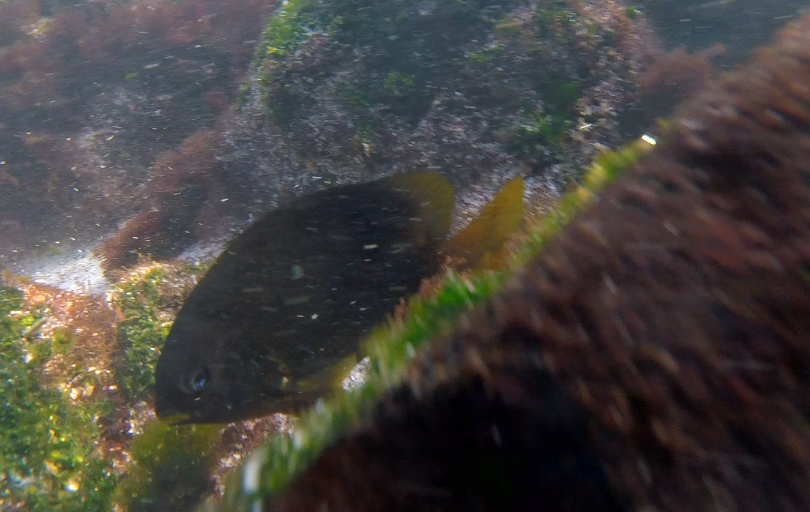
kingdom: Animalia
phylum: Chordata
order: Perciformes
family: Pomacentridae
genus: Stegastes
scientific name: Stegastes arcifrons
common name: Galapagos gregory
